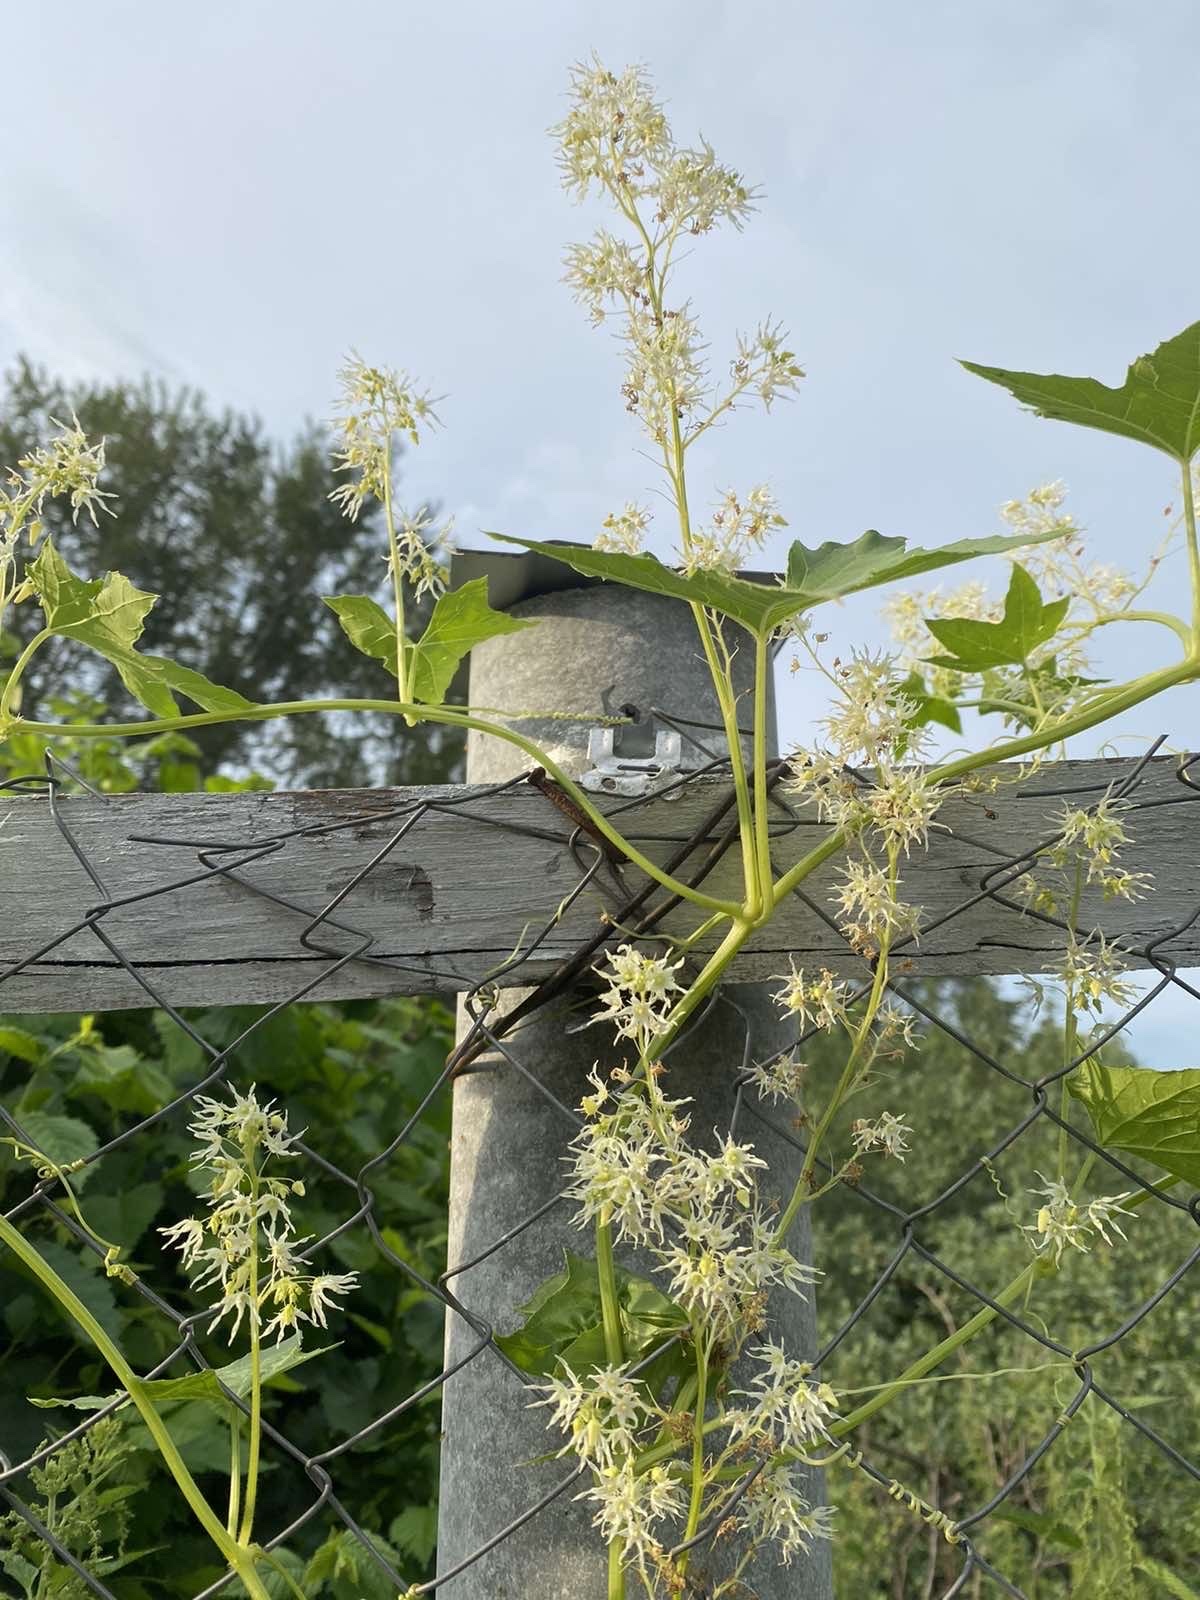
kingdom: Plantae
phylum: Tracheophyta
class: Magnoliopsida
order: Cucurbitales
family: Cucurbitaceae
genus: Echinocystis
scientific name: Echinocystis lobata
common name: Wild cucumber
